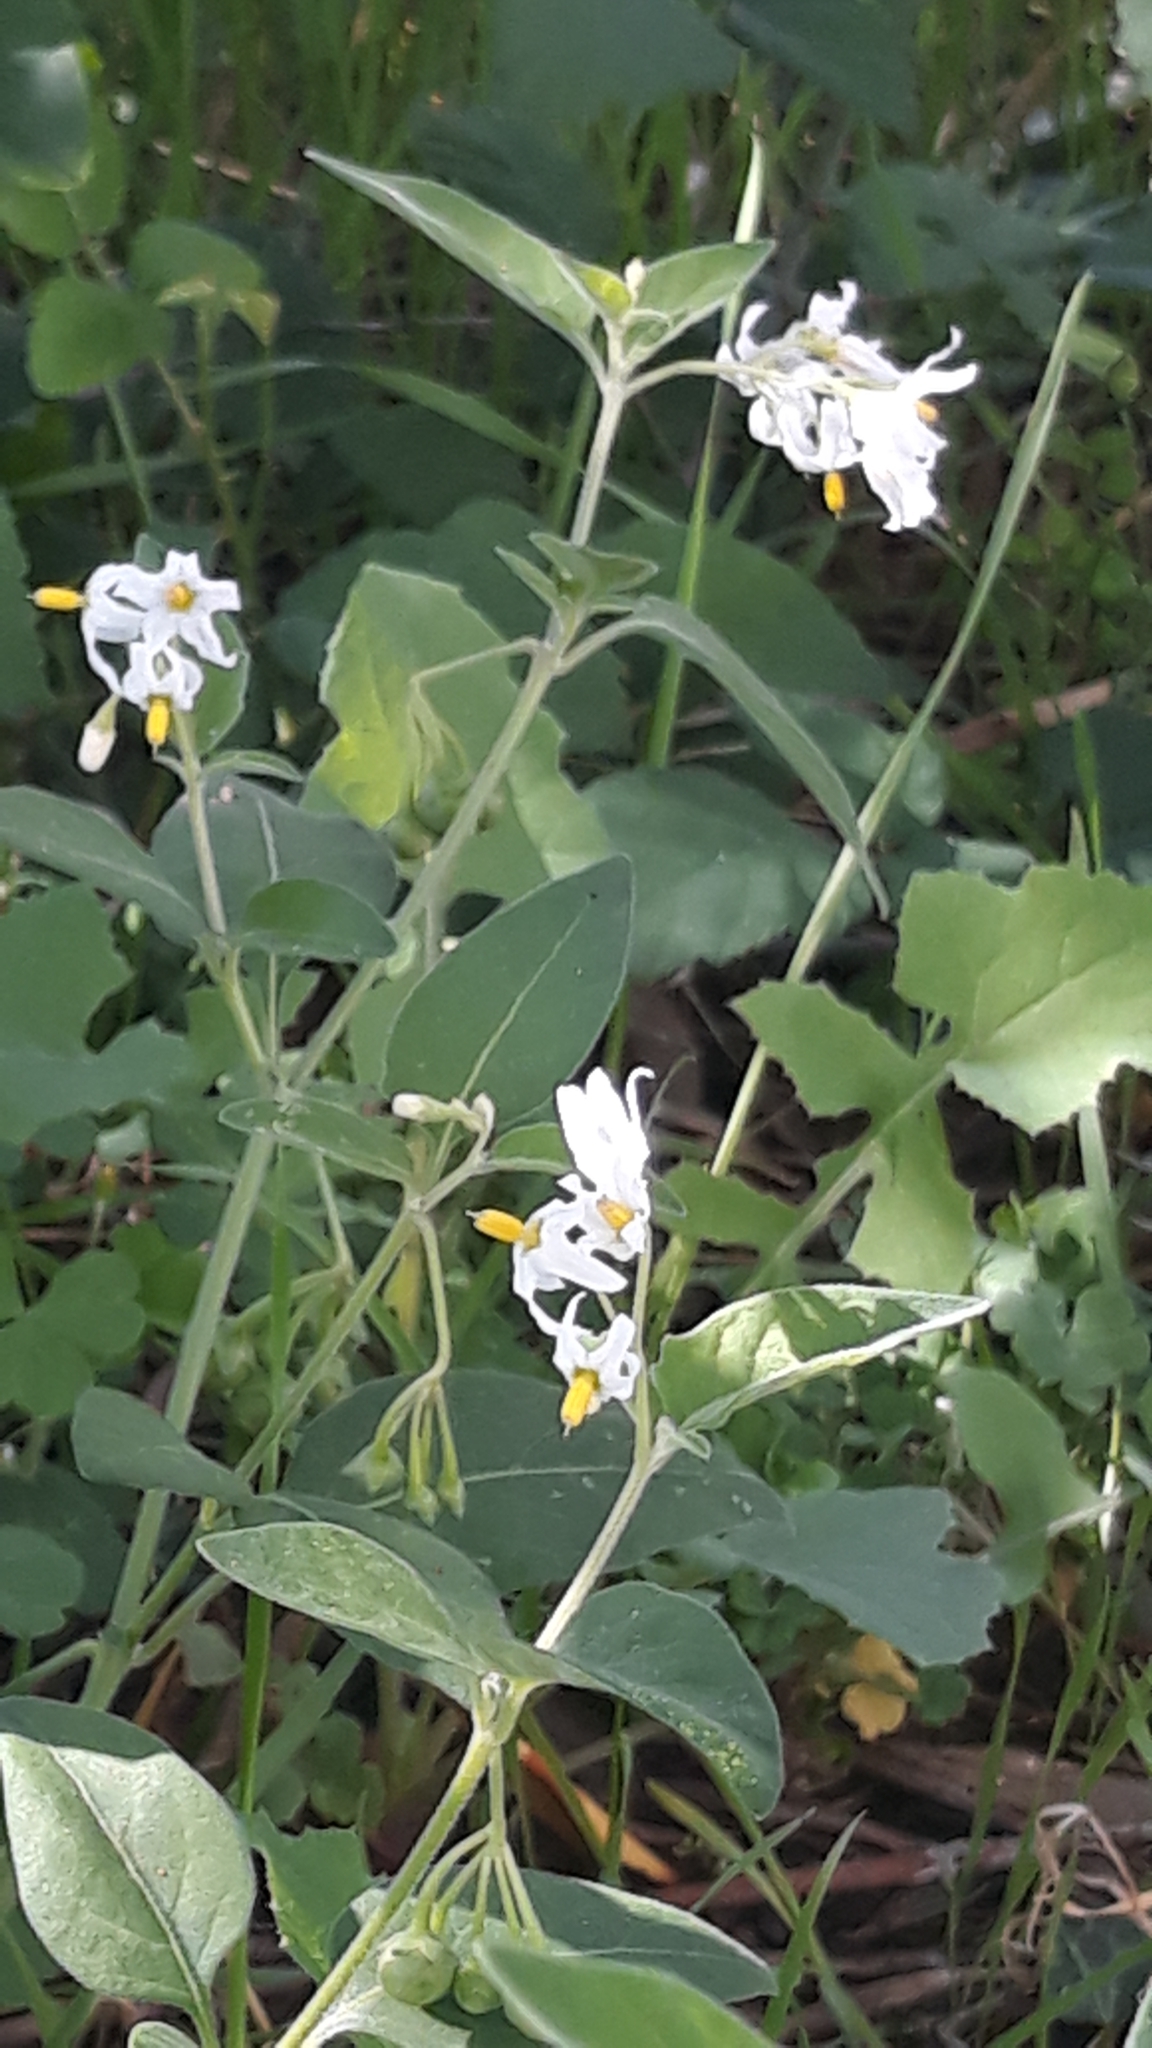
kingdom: Plantae
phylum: Tracheophyta
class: Magnoliopsida
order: Solanales
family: Solanaceae
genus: Solanum
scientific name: Solanum chenopodioides
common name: Tall nightshade
